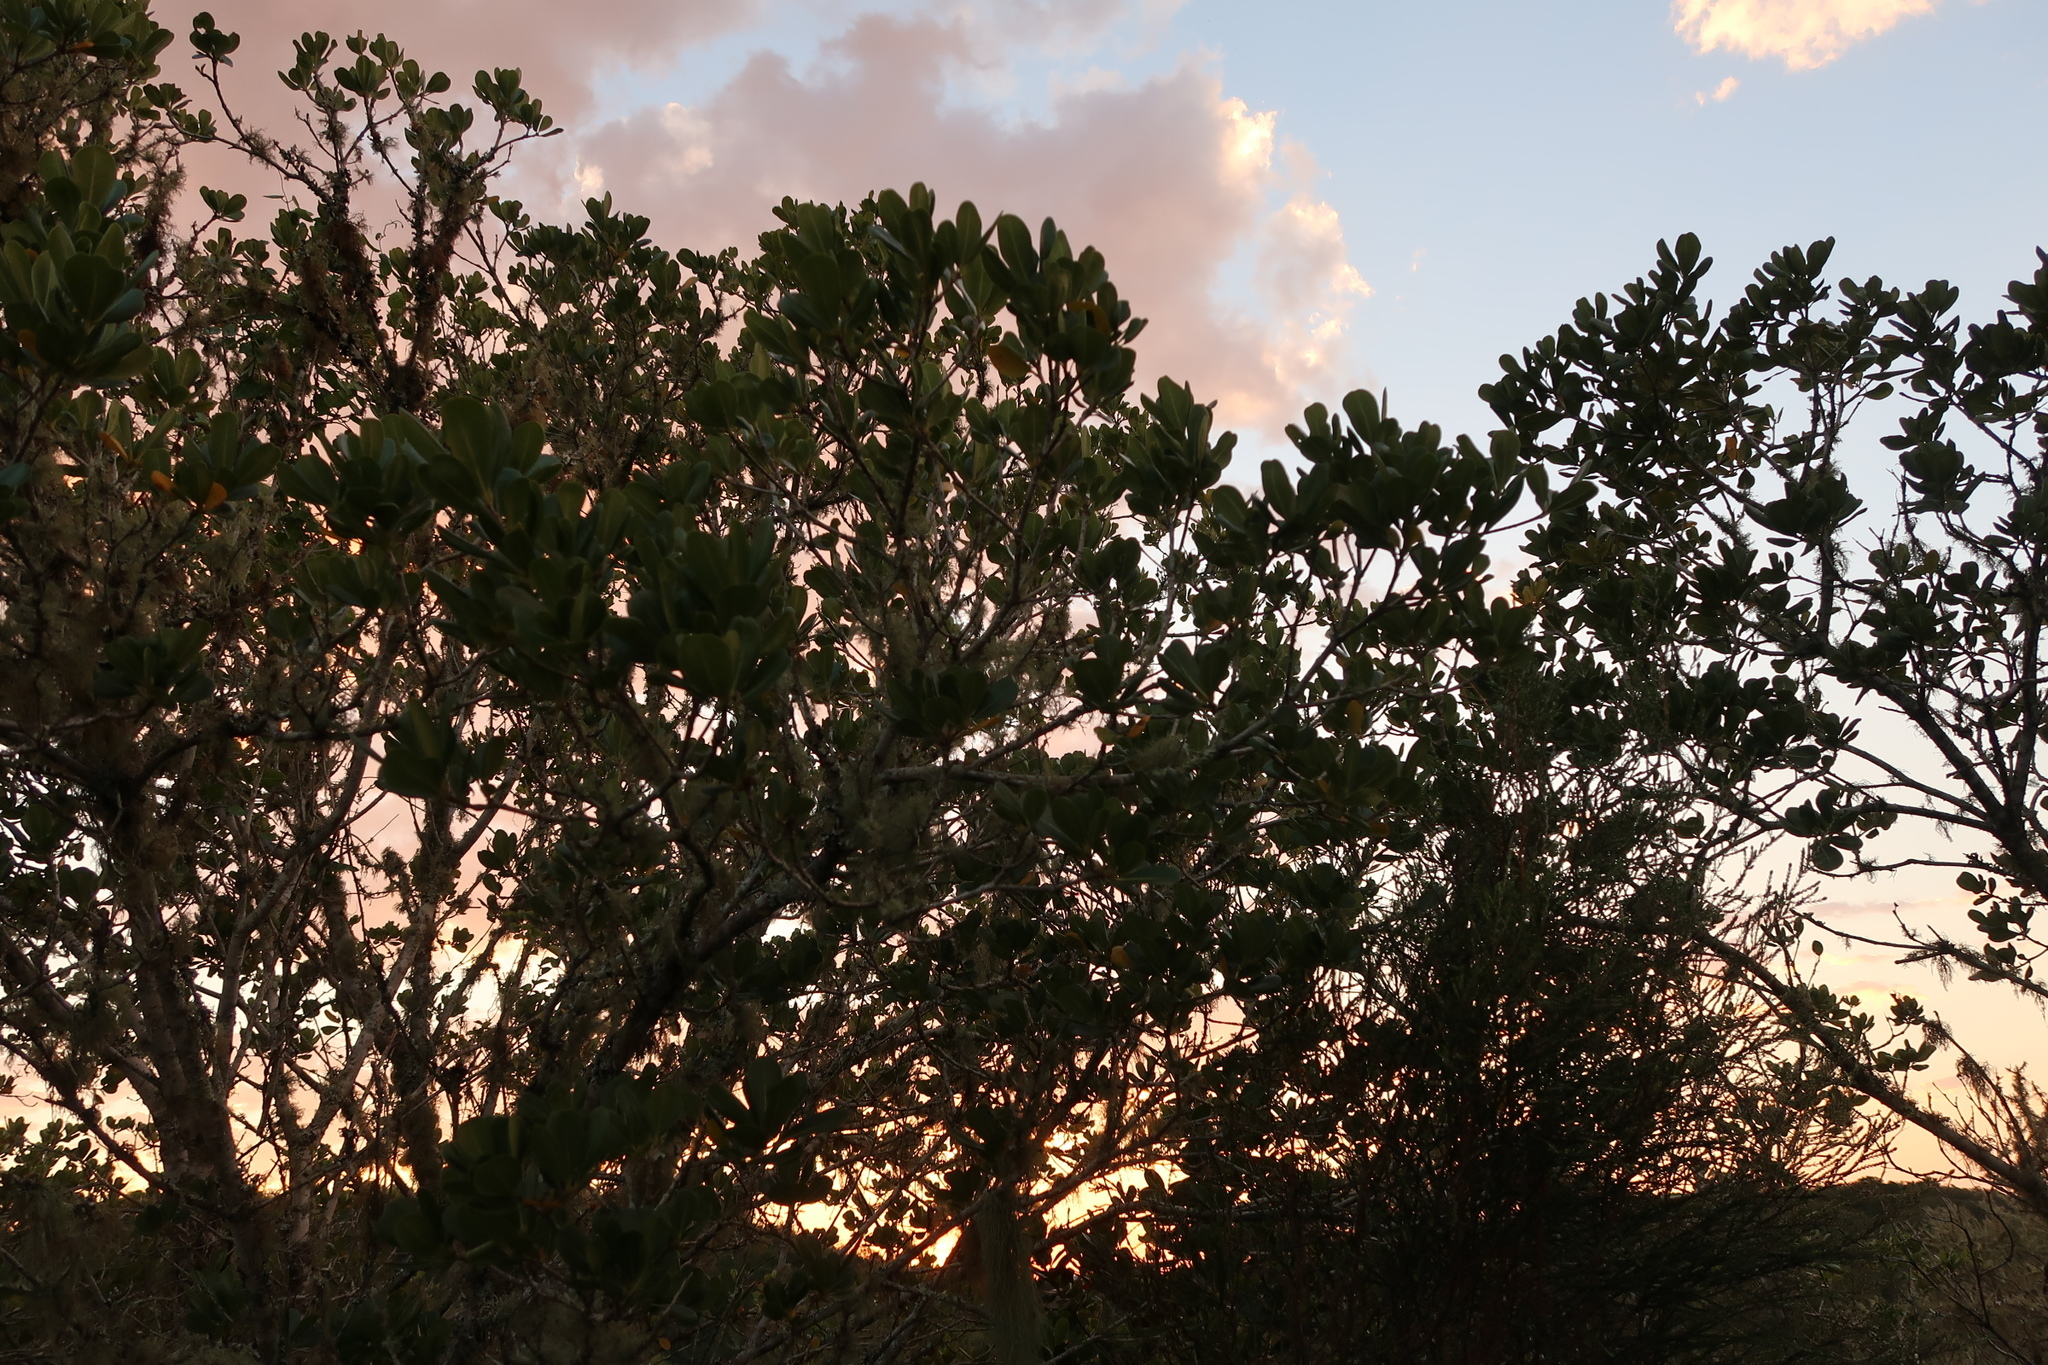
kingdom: Plantae
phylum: Tracheophyta
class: Magnoliopsida
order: Apiales
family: Pittosporaceae
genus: Pittosporum
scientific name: Pittosporum viridiflorum
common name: Cape cheesewood
